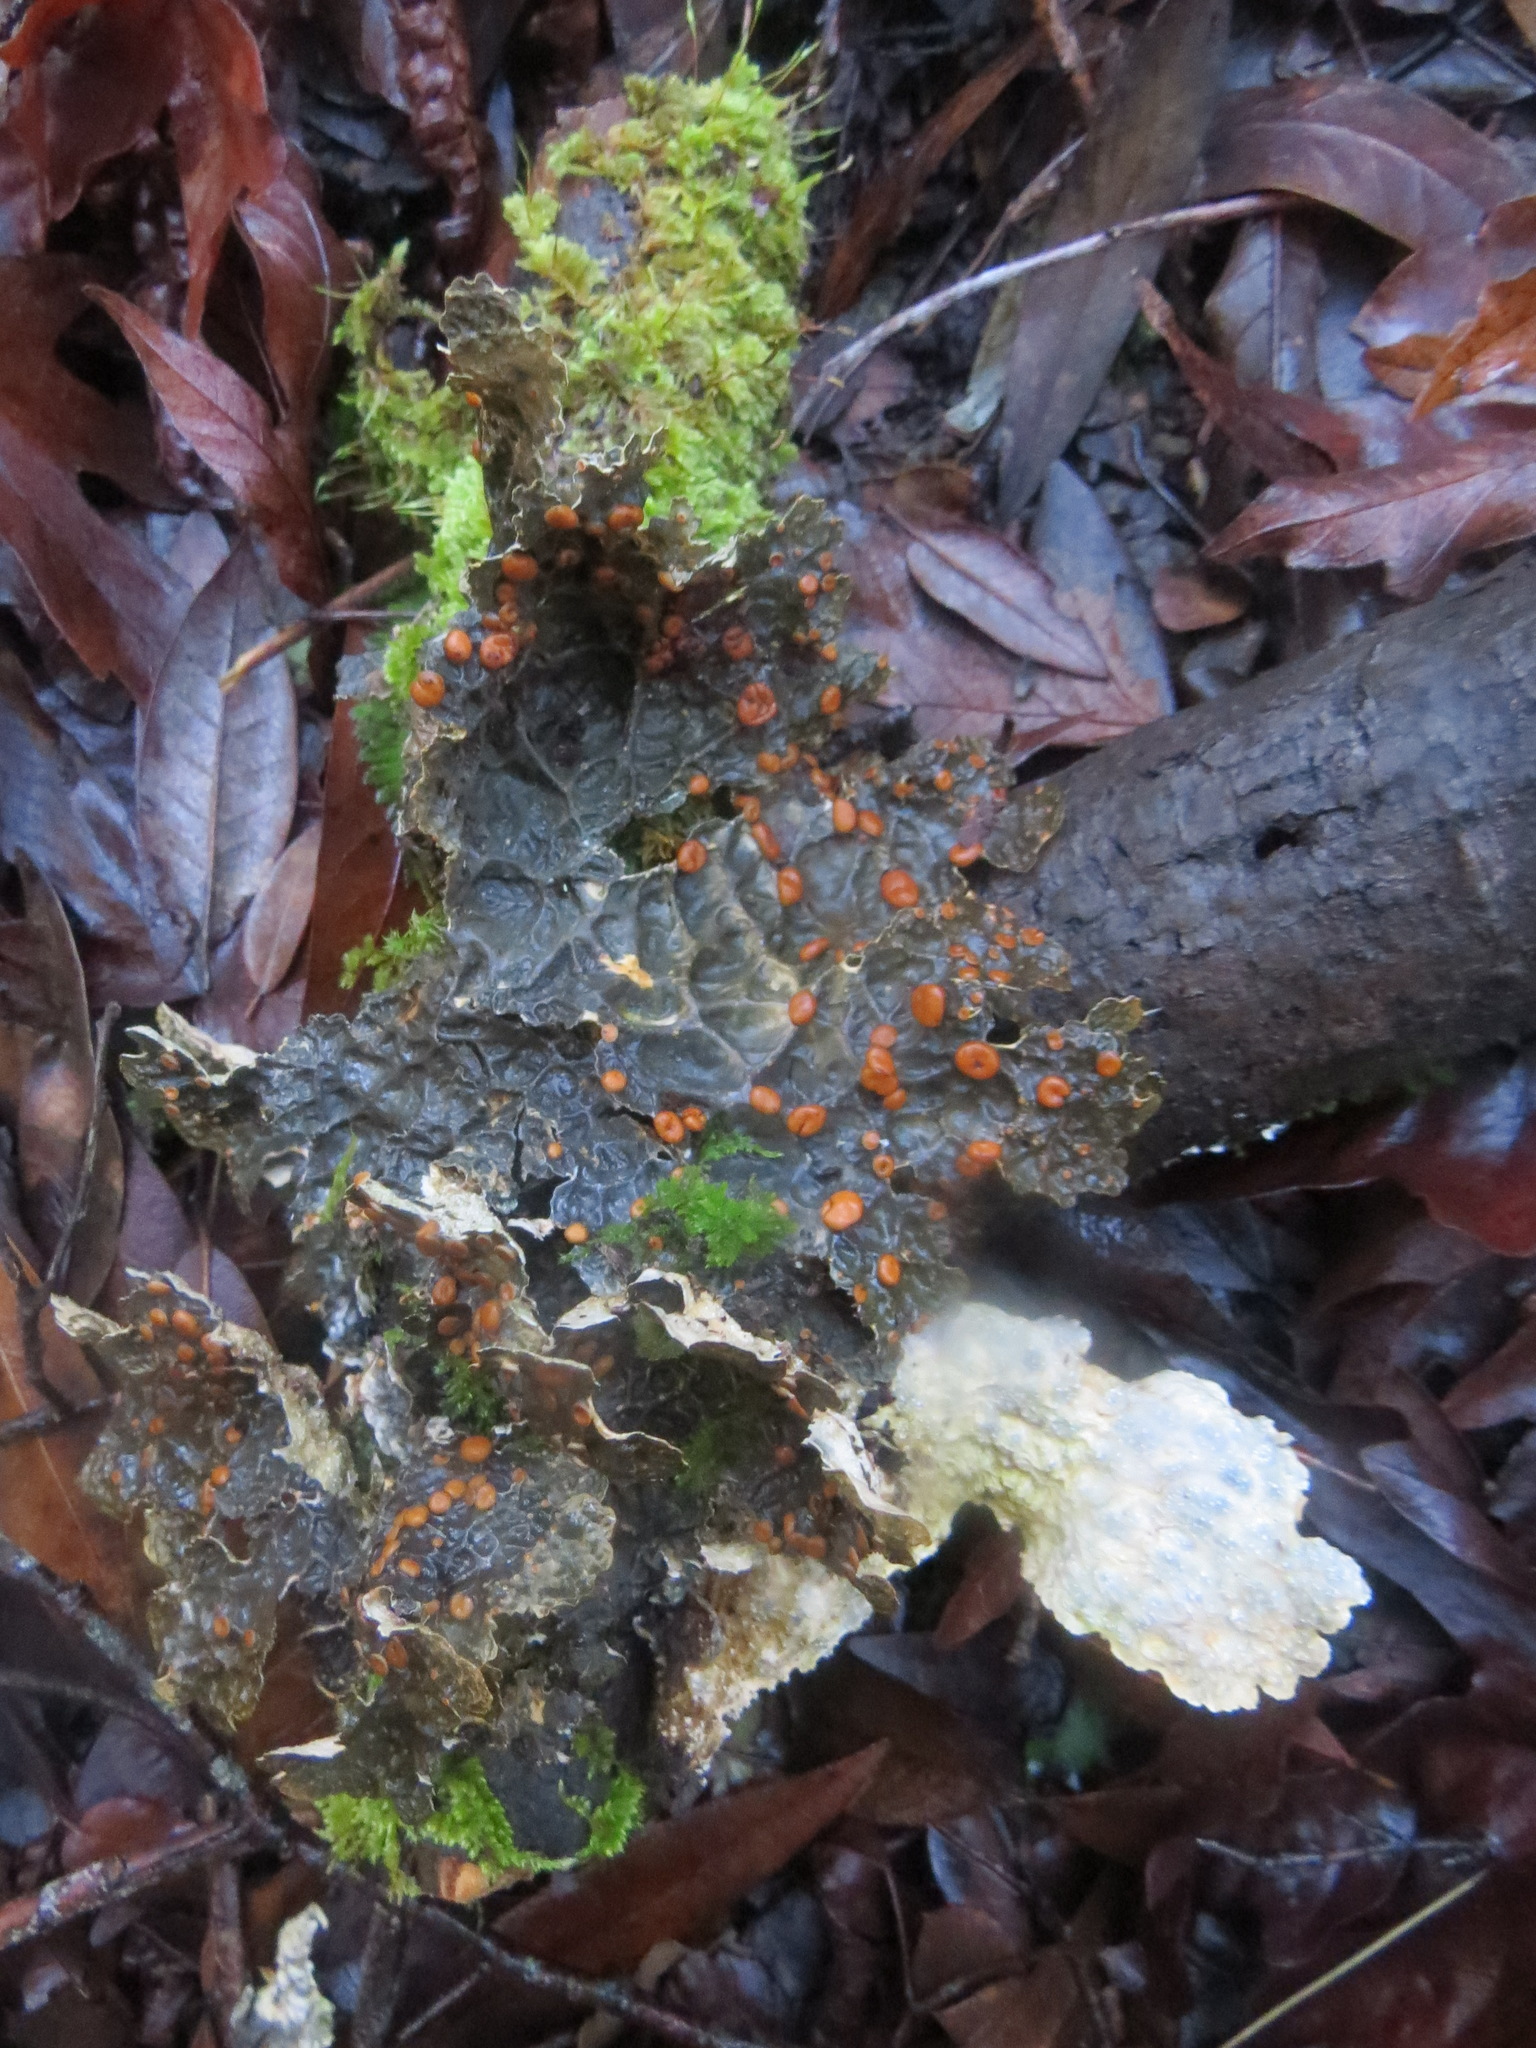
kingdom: Fungi
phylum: Ascomycota
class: Lecanoromycetes
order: Peltigerales
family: Lobariaceae
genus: Lobaria
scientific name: Lobaria anthraspis
